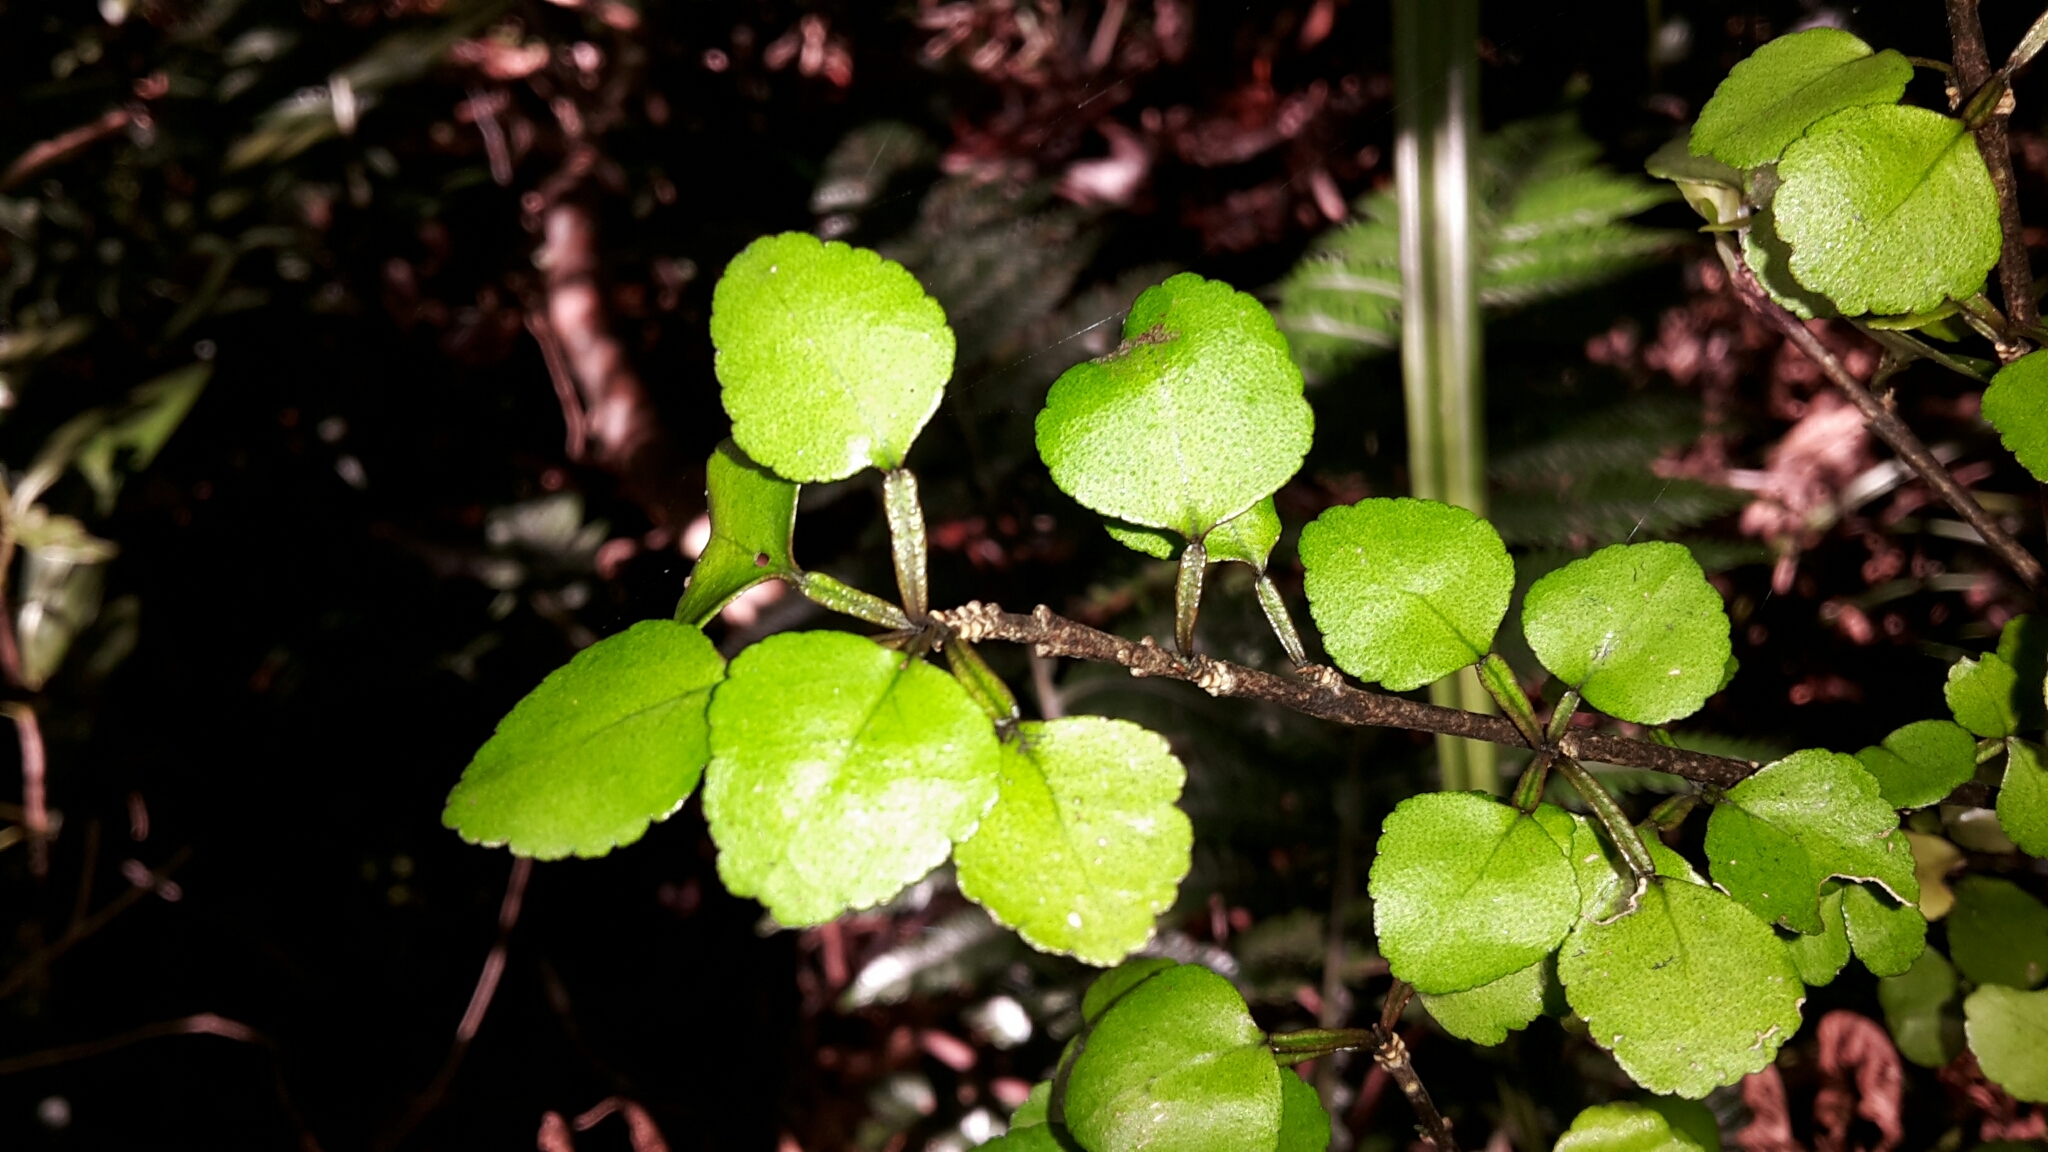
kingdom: Plantae
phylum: Tracheophyta
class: Magnoliopsida
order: Sapindales
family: Rutaceae
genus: Melicope
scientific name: Melicope simplex
